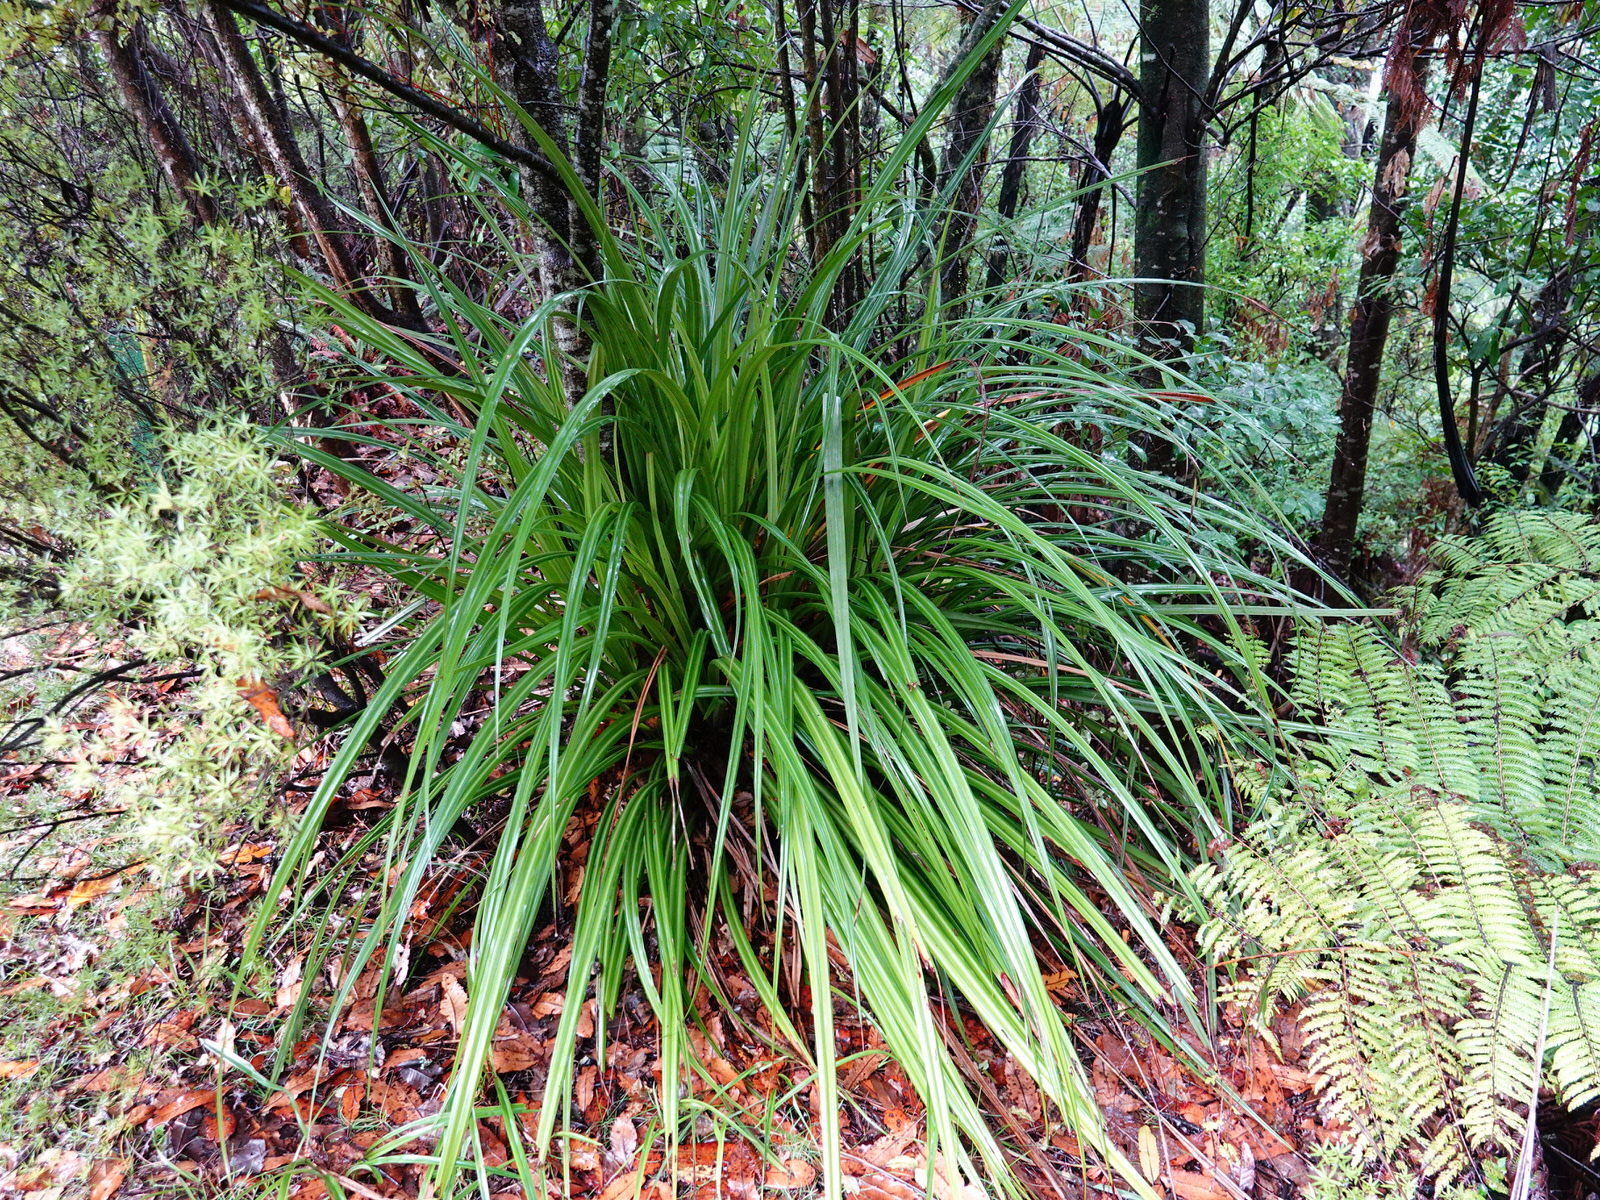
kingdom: Plantae
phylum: Tracheophyta
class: Liliopsida
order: Asparagales
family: Asteliaceae
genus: Astelia
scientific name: Astelia fragrans
